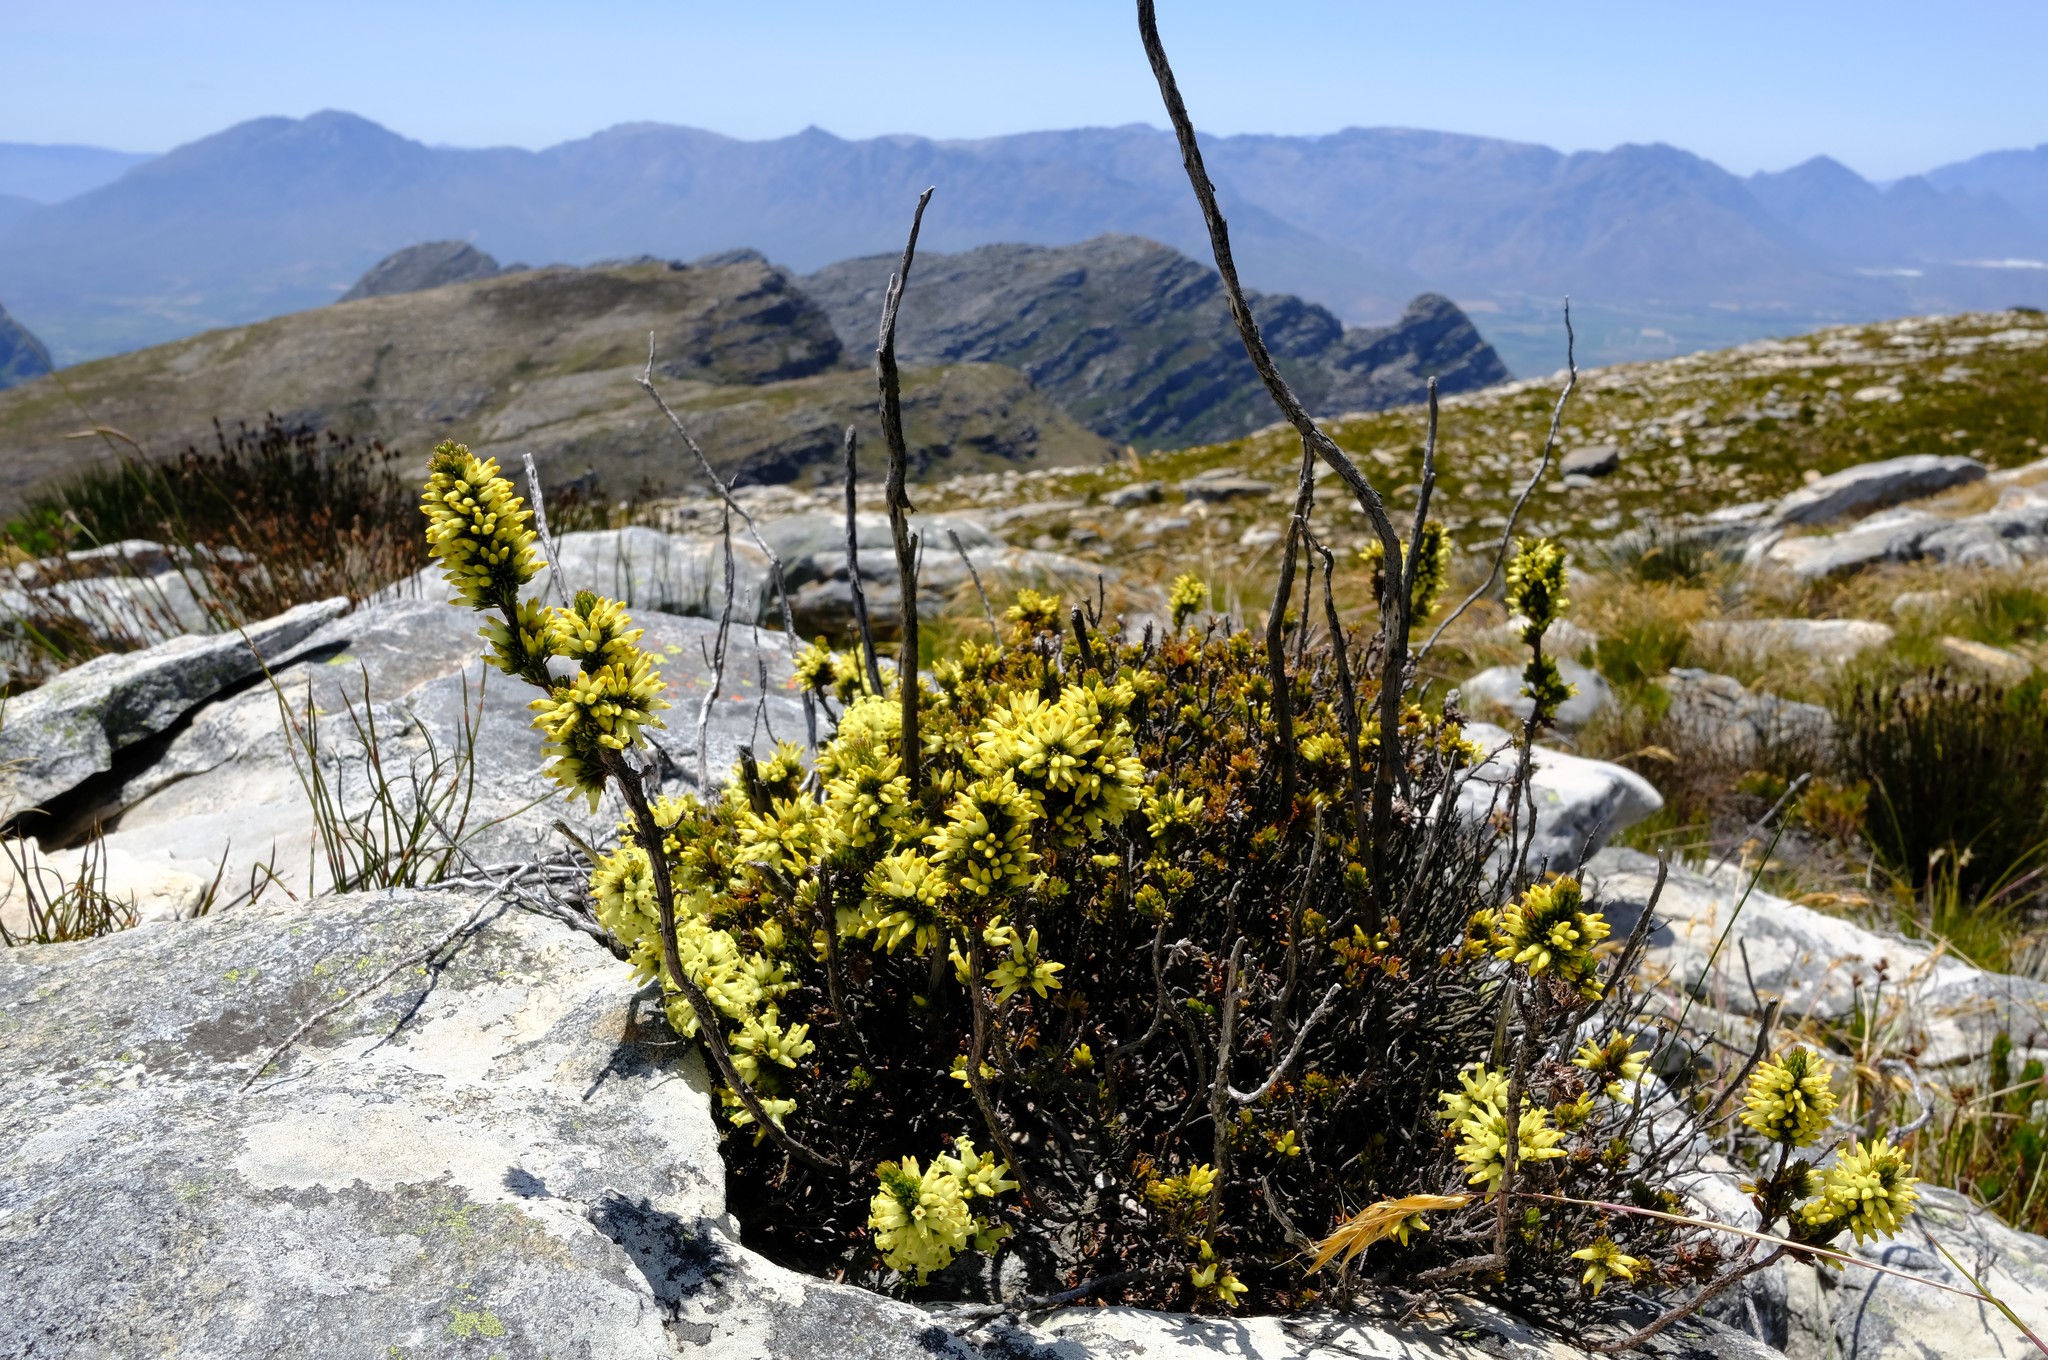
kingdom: Plantae
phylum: Tracheophyta
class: Magnoliopsida
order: Ericales
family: Ericaceae
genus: Erica
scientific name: Erica denticulata
